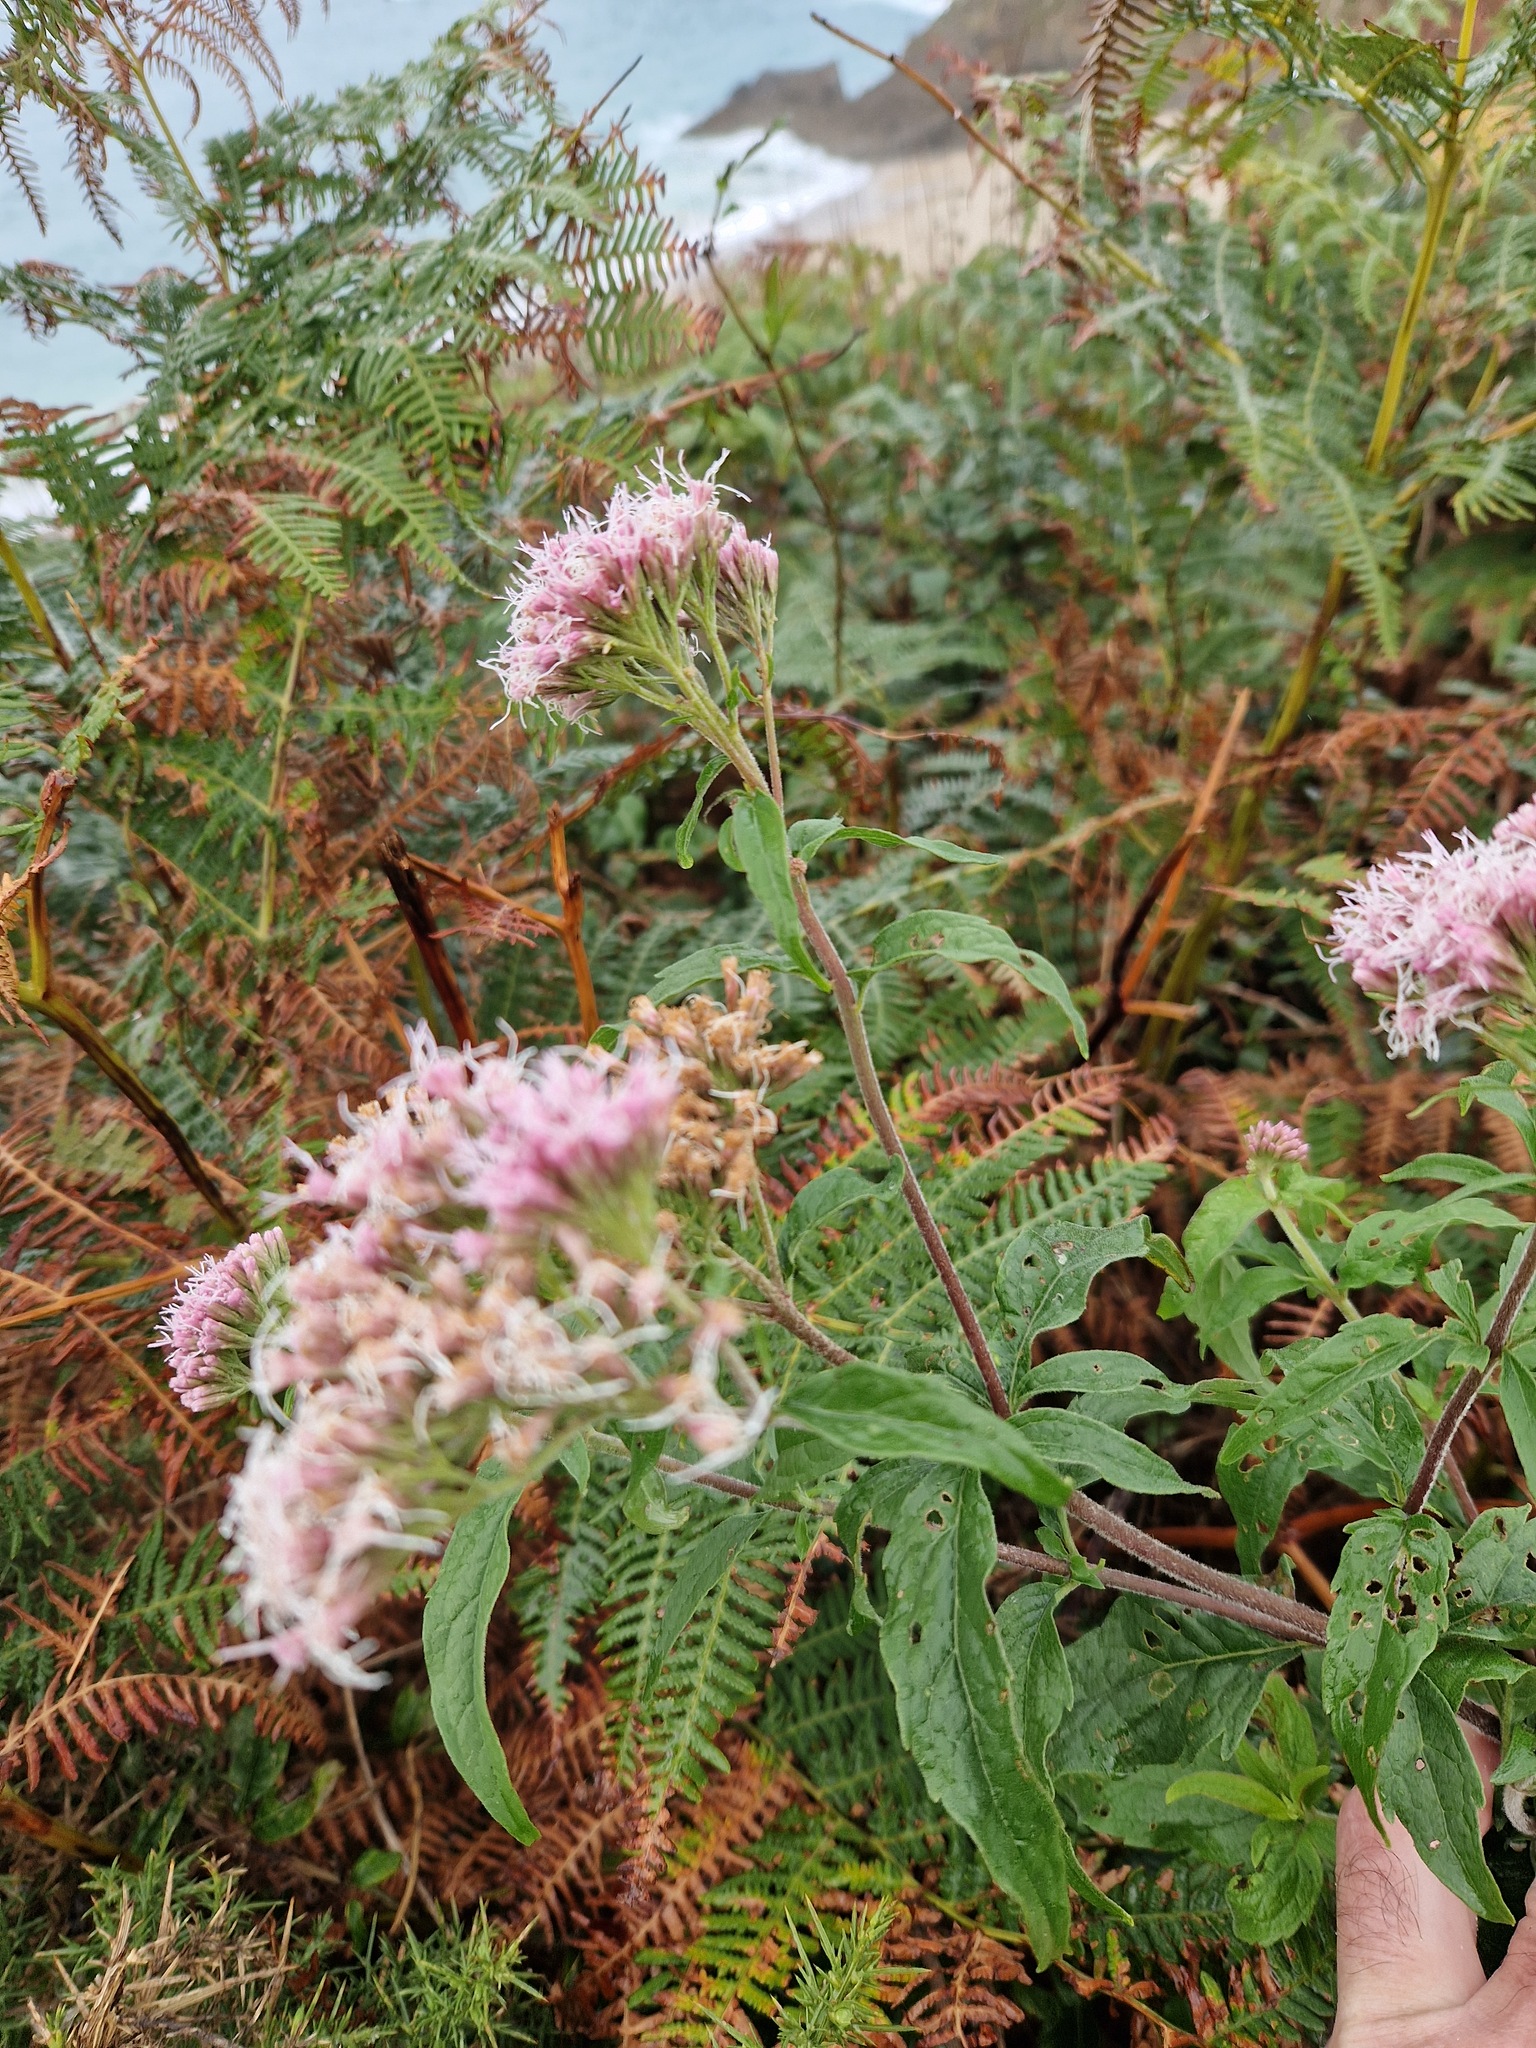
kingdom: Plantae
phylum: Tracheophyta
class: Magnoliopsida
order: Asterales
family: Asteraceae
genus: Eupatorium
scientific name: Eupatorium cannabinum
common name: Hemp-agrimony
